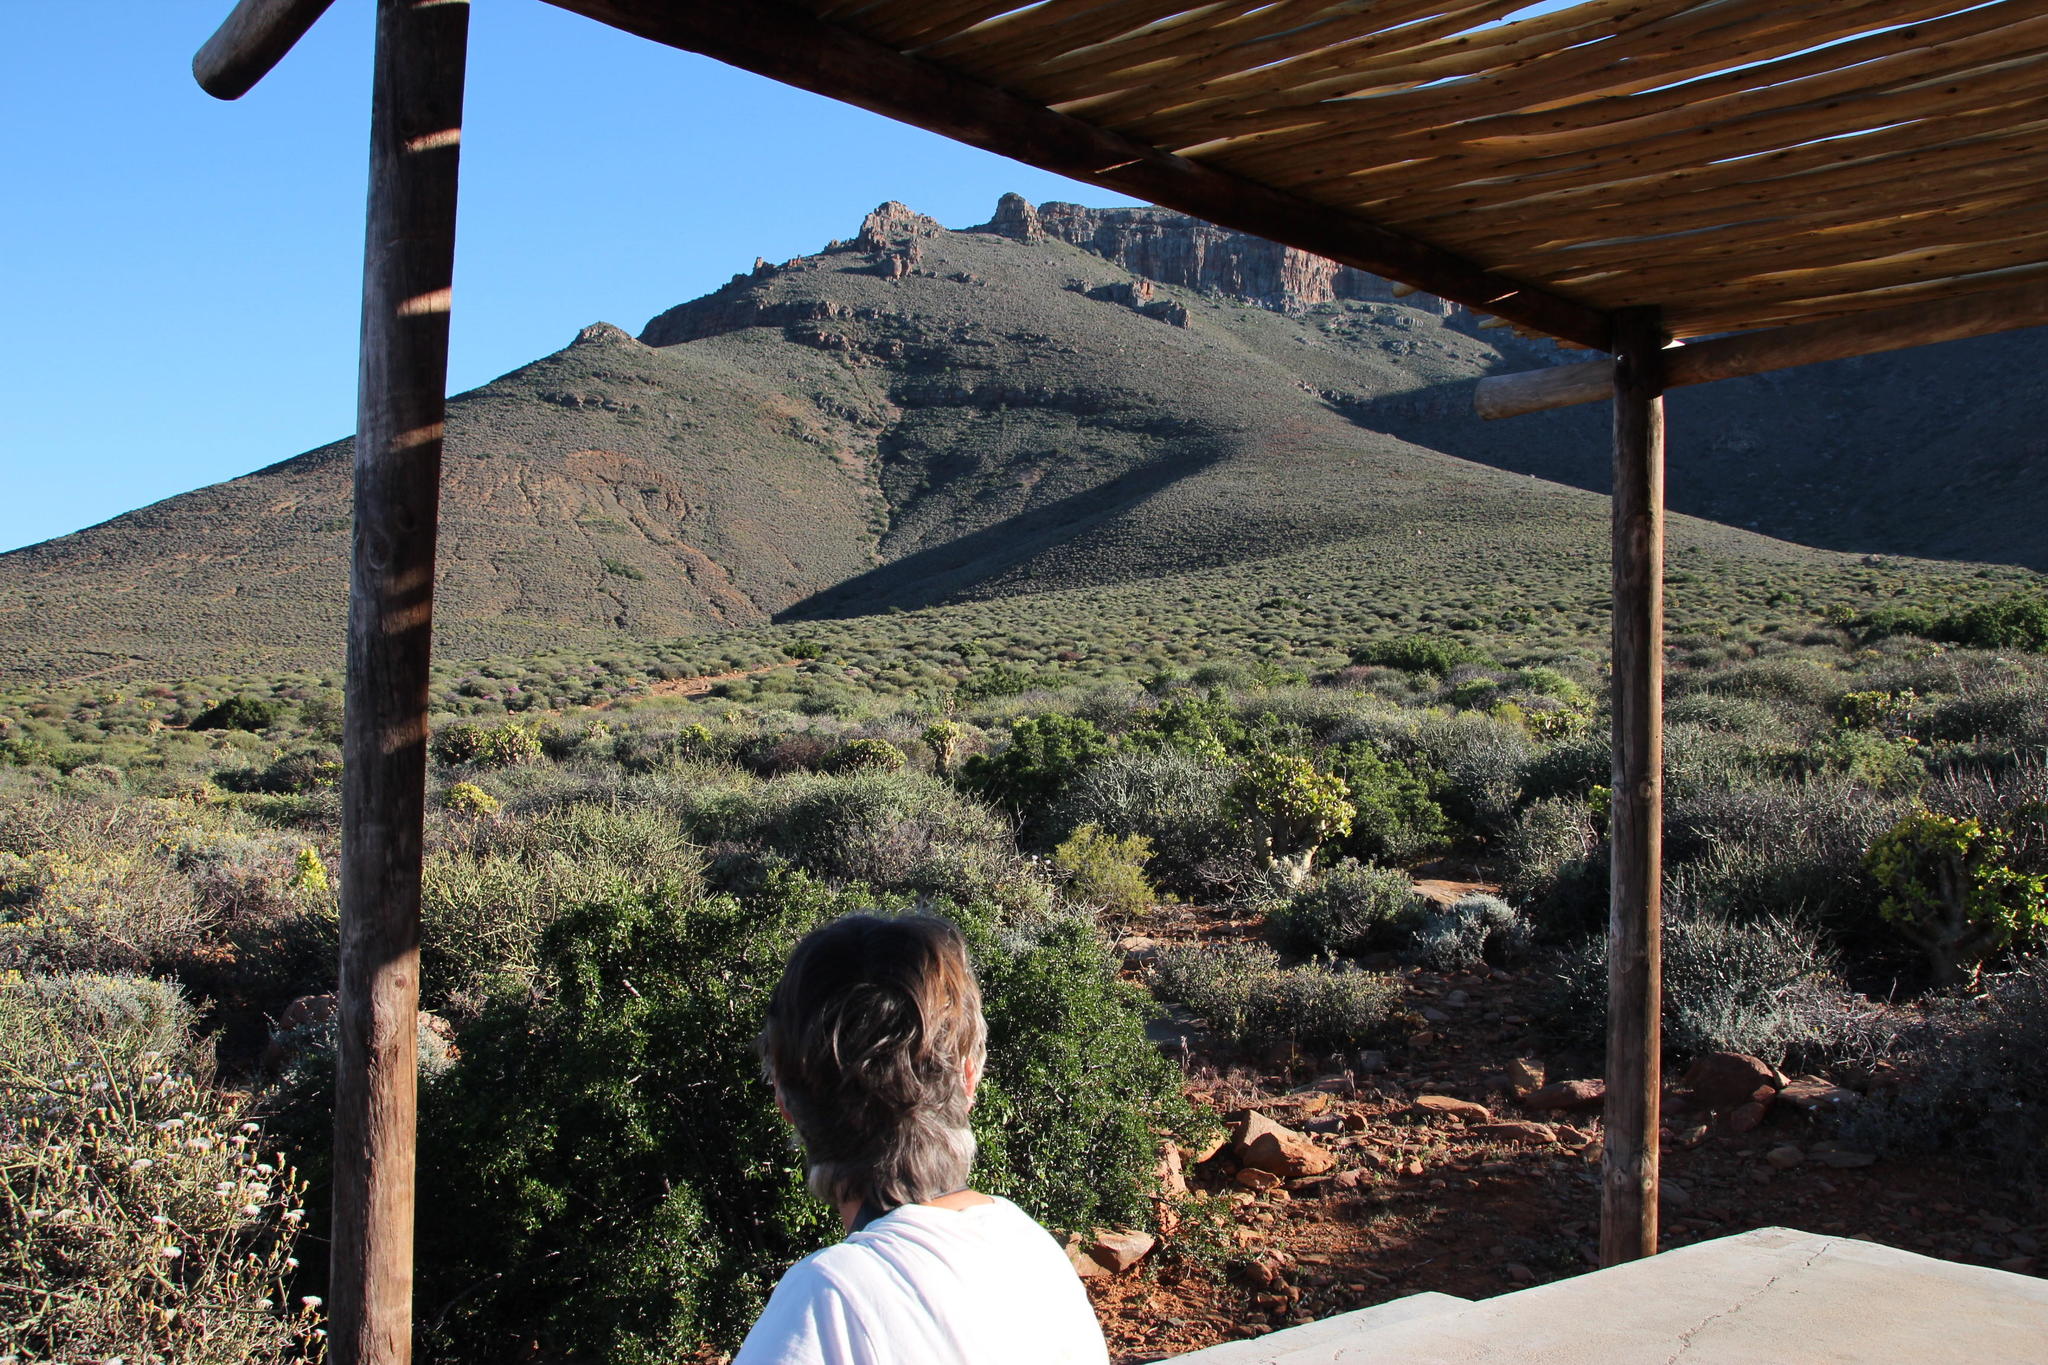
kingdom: Plantae
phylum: Tracheophyta
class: Magnoliopsida
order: Saxifragales
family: Crassulaceae
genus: Tylecodon
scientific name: Tylecodon paniculatus
